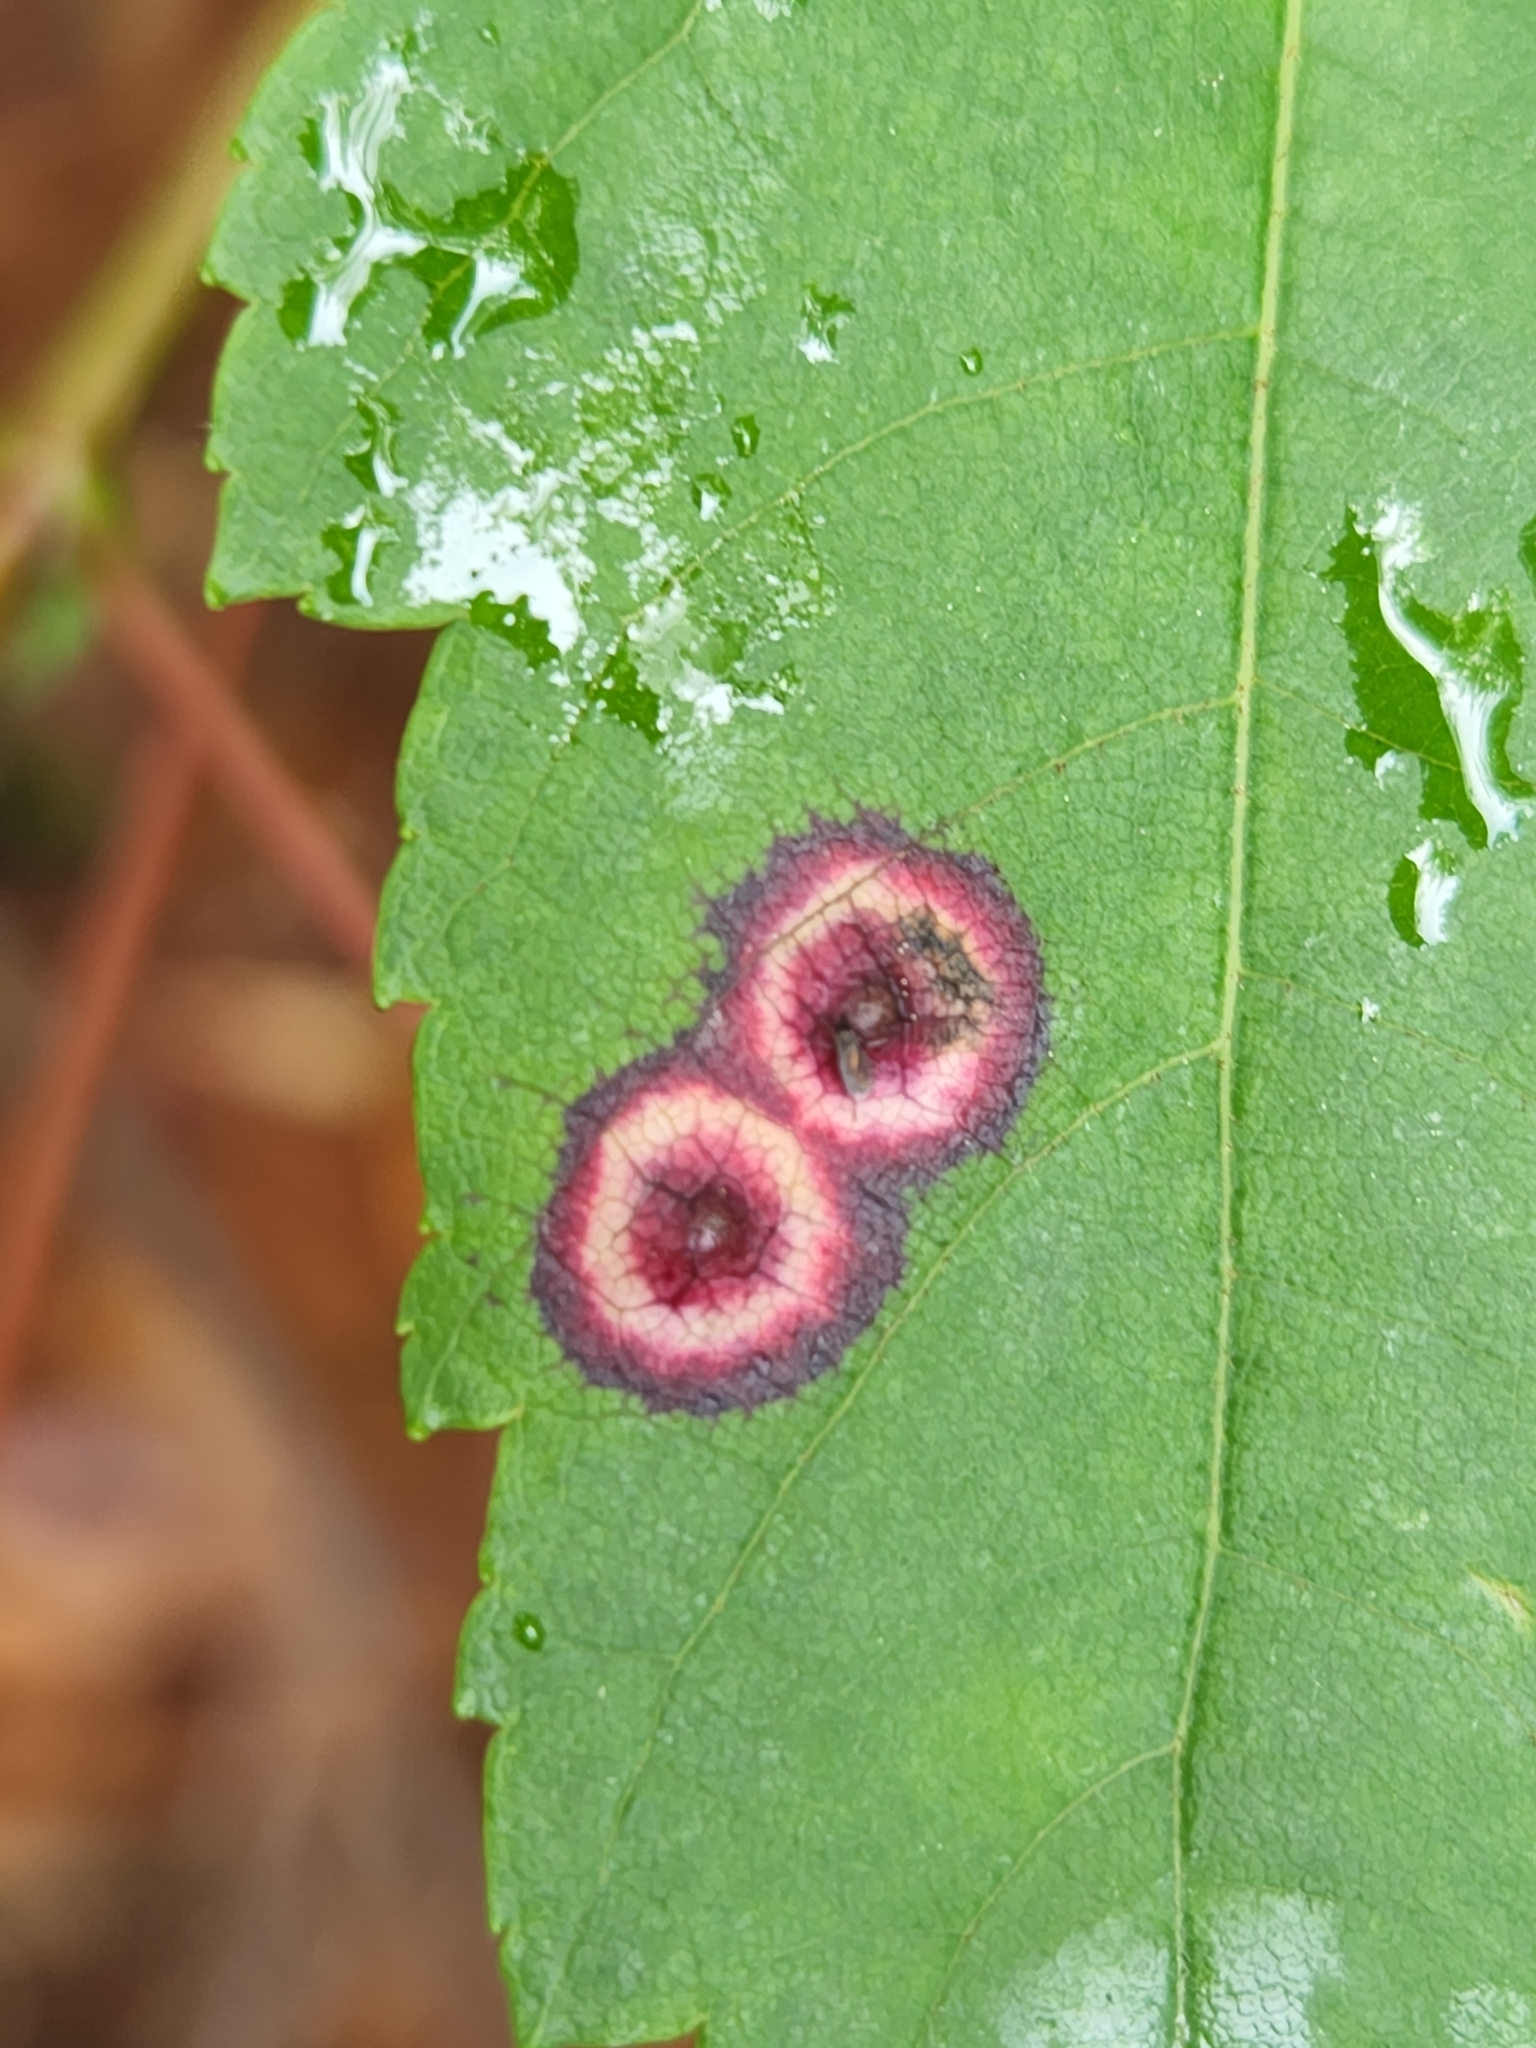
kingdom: Animalia
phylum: Arthropoda
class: Insecta
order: Diptera
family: Cecidomyiidae
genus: Acericecis
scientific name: Acericecis ocellaris
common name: Ocellate gall midge
